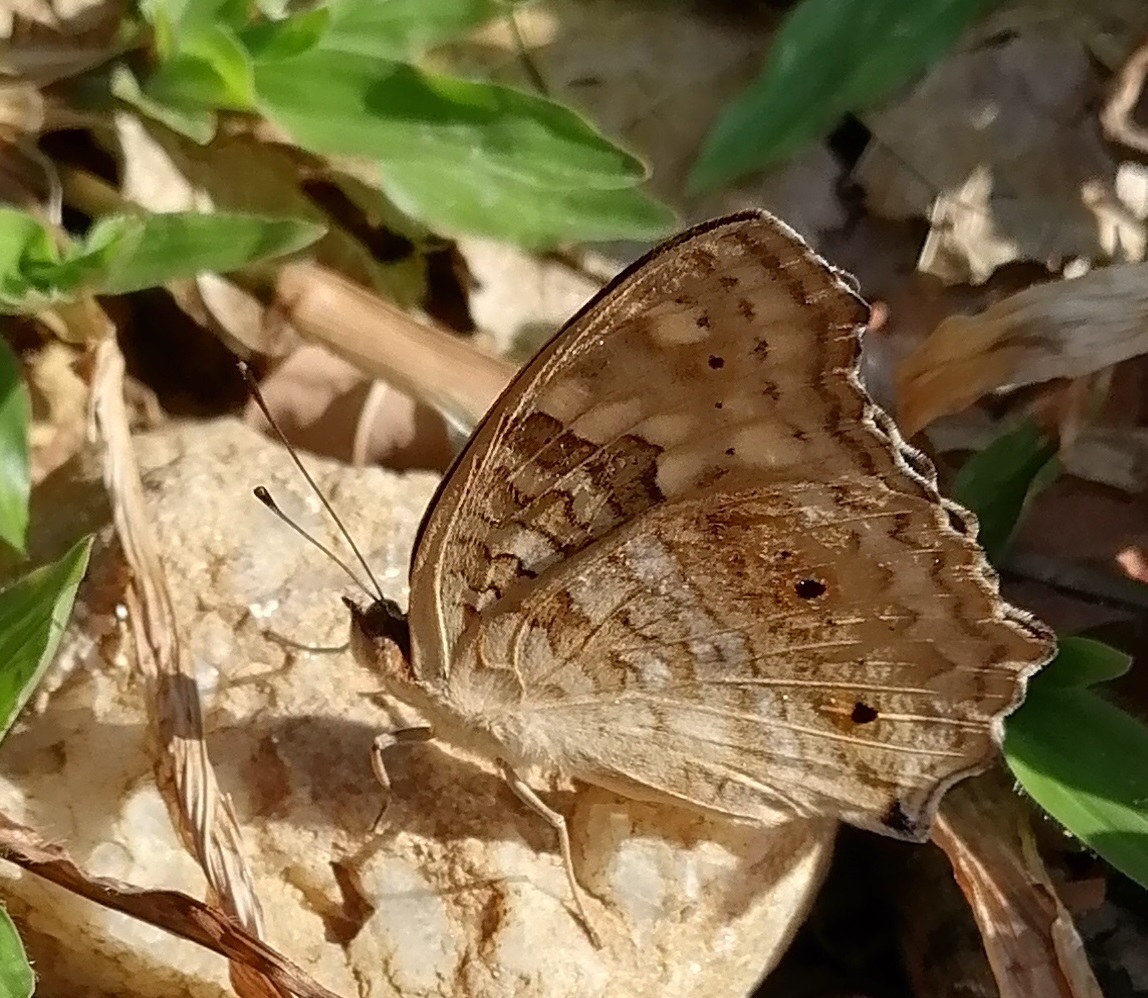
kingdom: Animalia
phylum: Arthropoda
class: Insecta
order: Lepidoptera
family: Nymphalidae
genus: Junonia
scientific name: Junonia lemonias
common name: Lemon pansy
